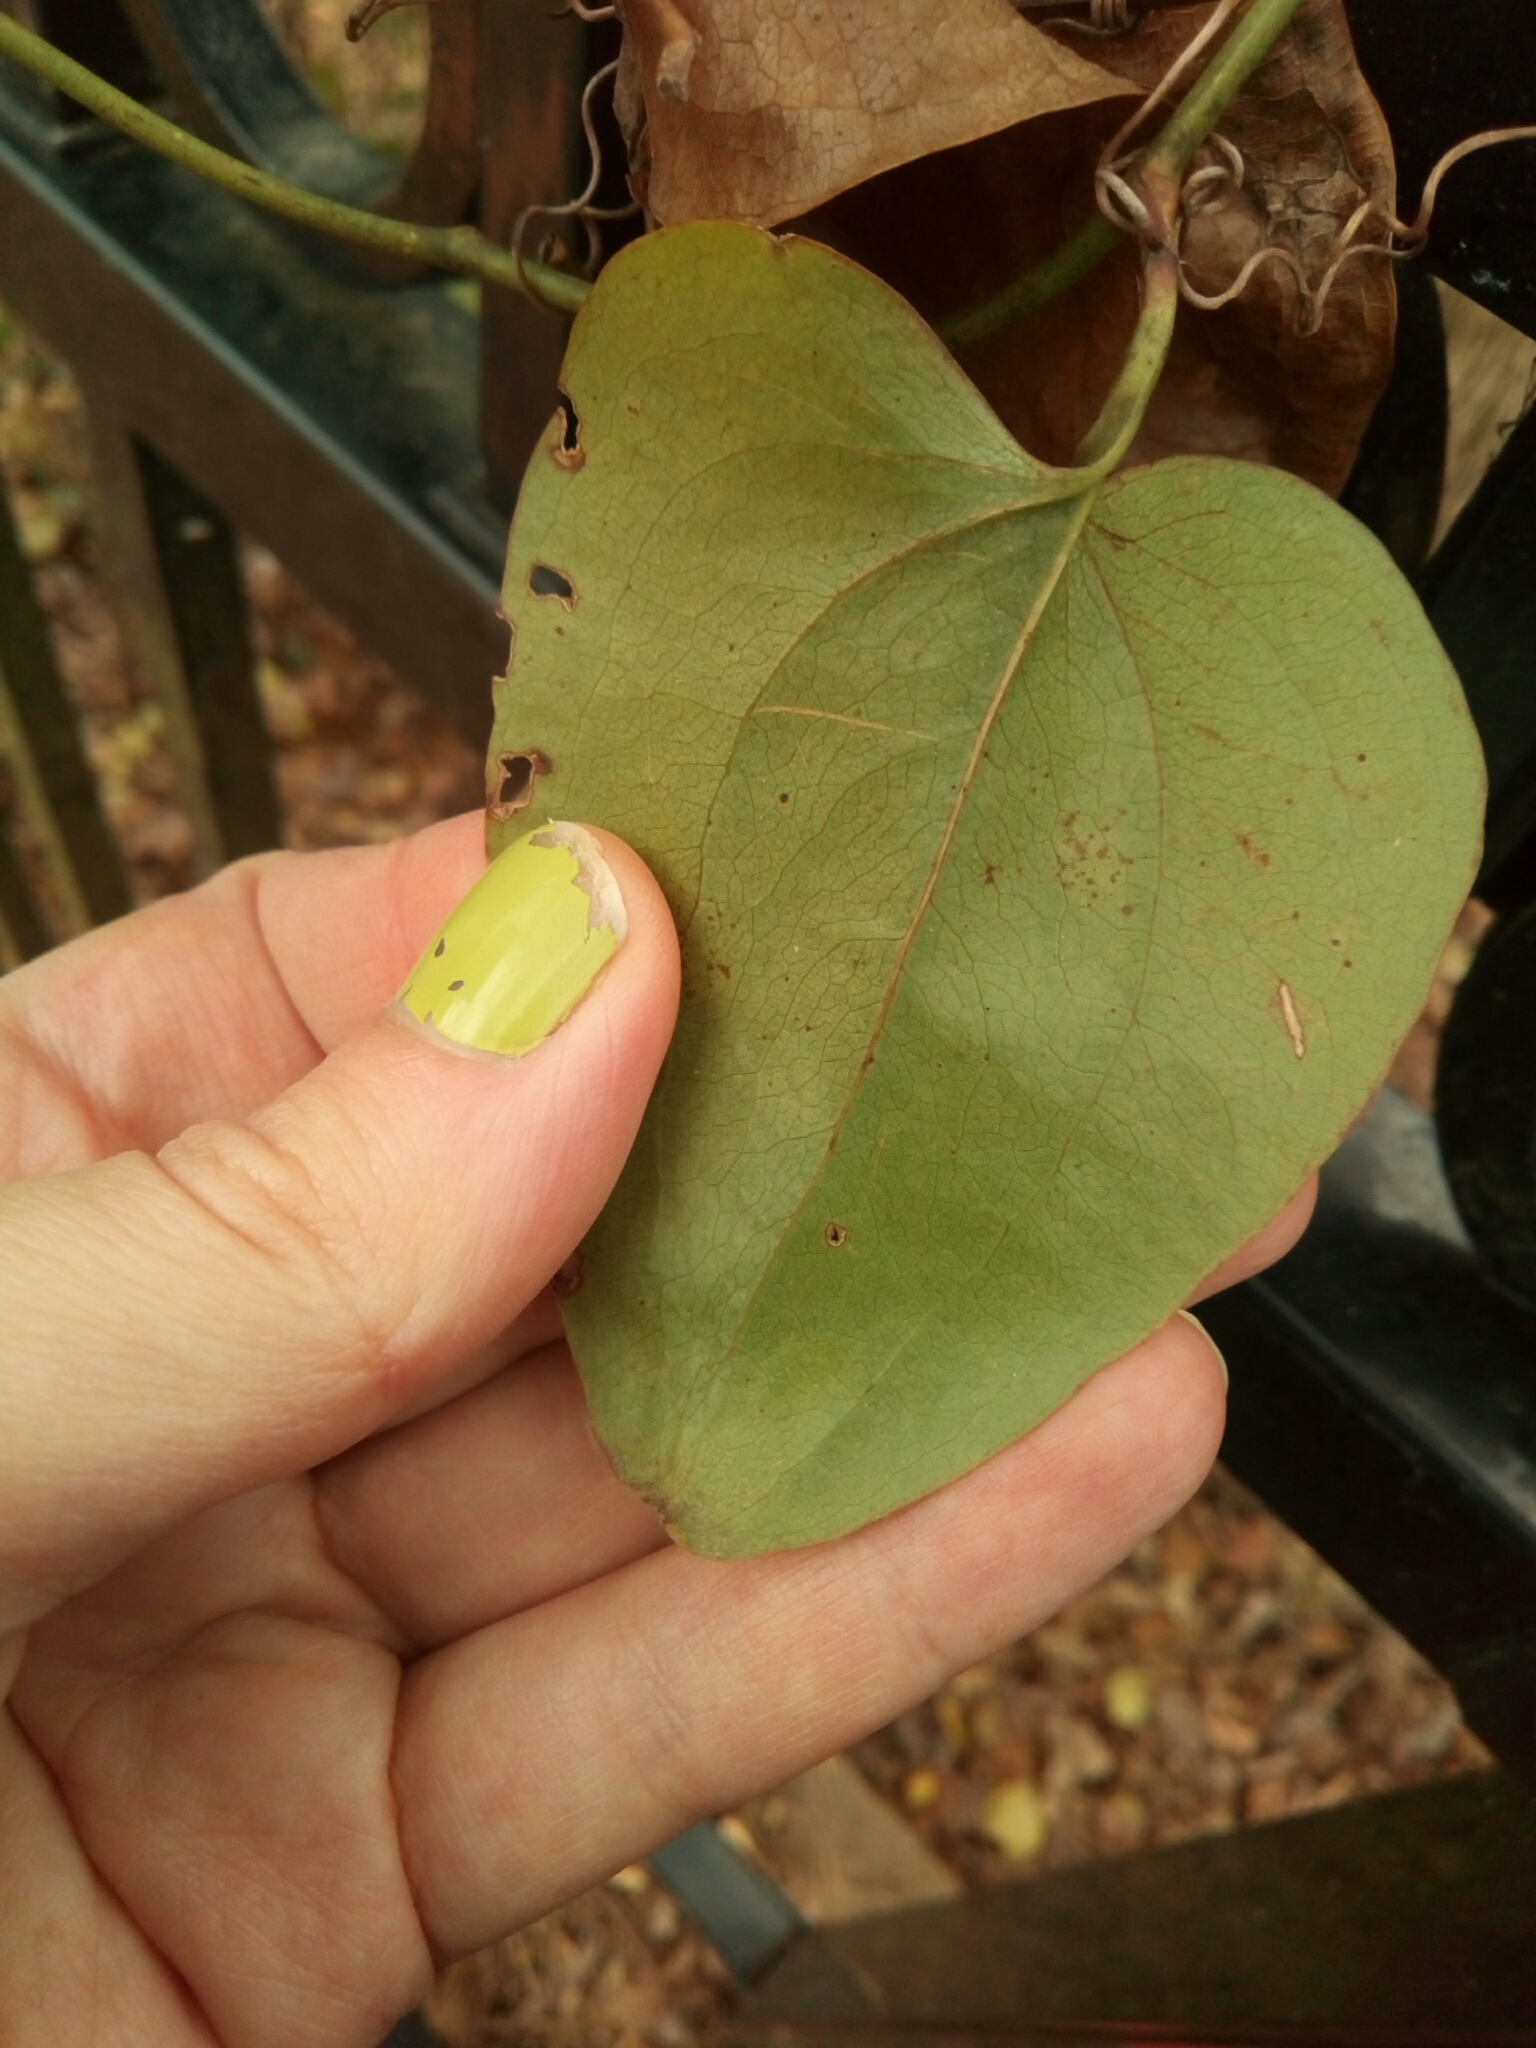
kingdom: Plantae
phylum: Tracheophyta
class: Liliopsida
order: Liliales
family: Smilacaceae
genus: Smilax
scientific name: Smilax rotundifolia
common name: Bullbriar
